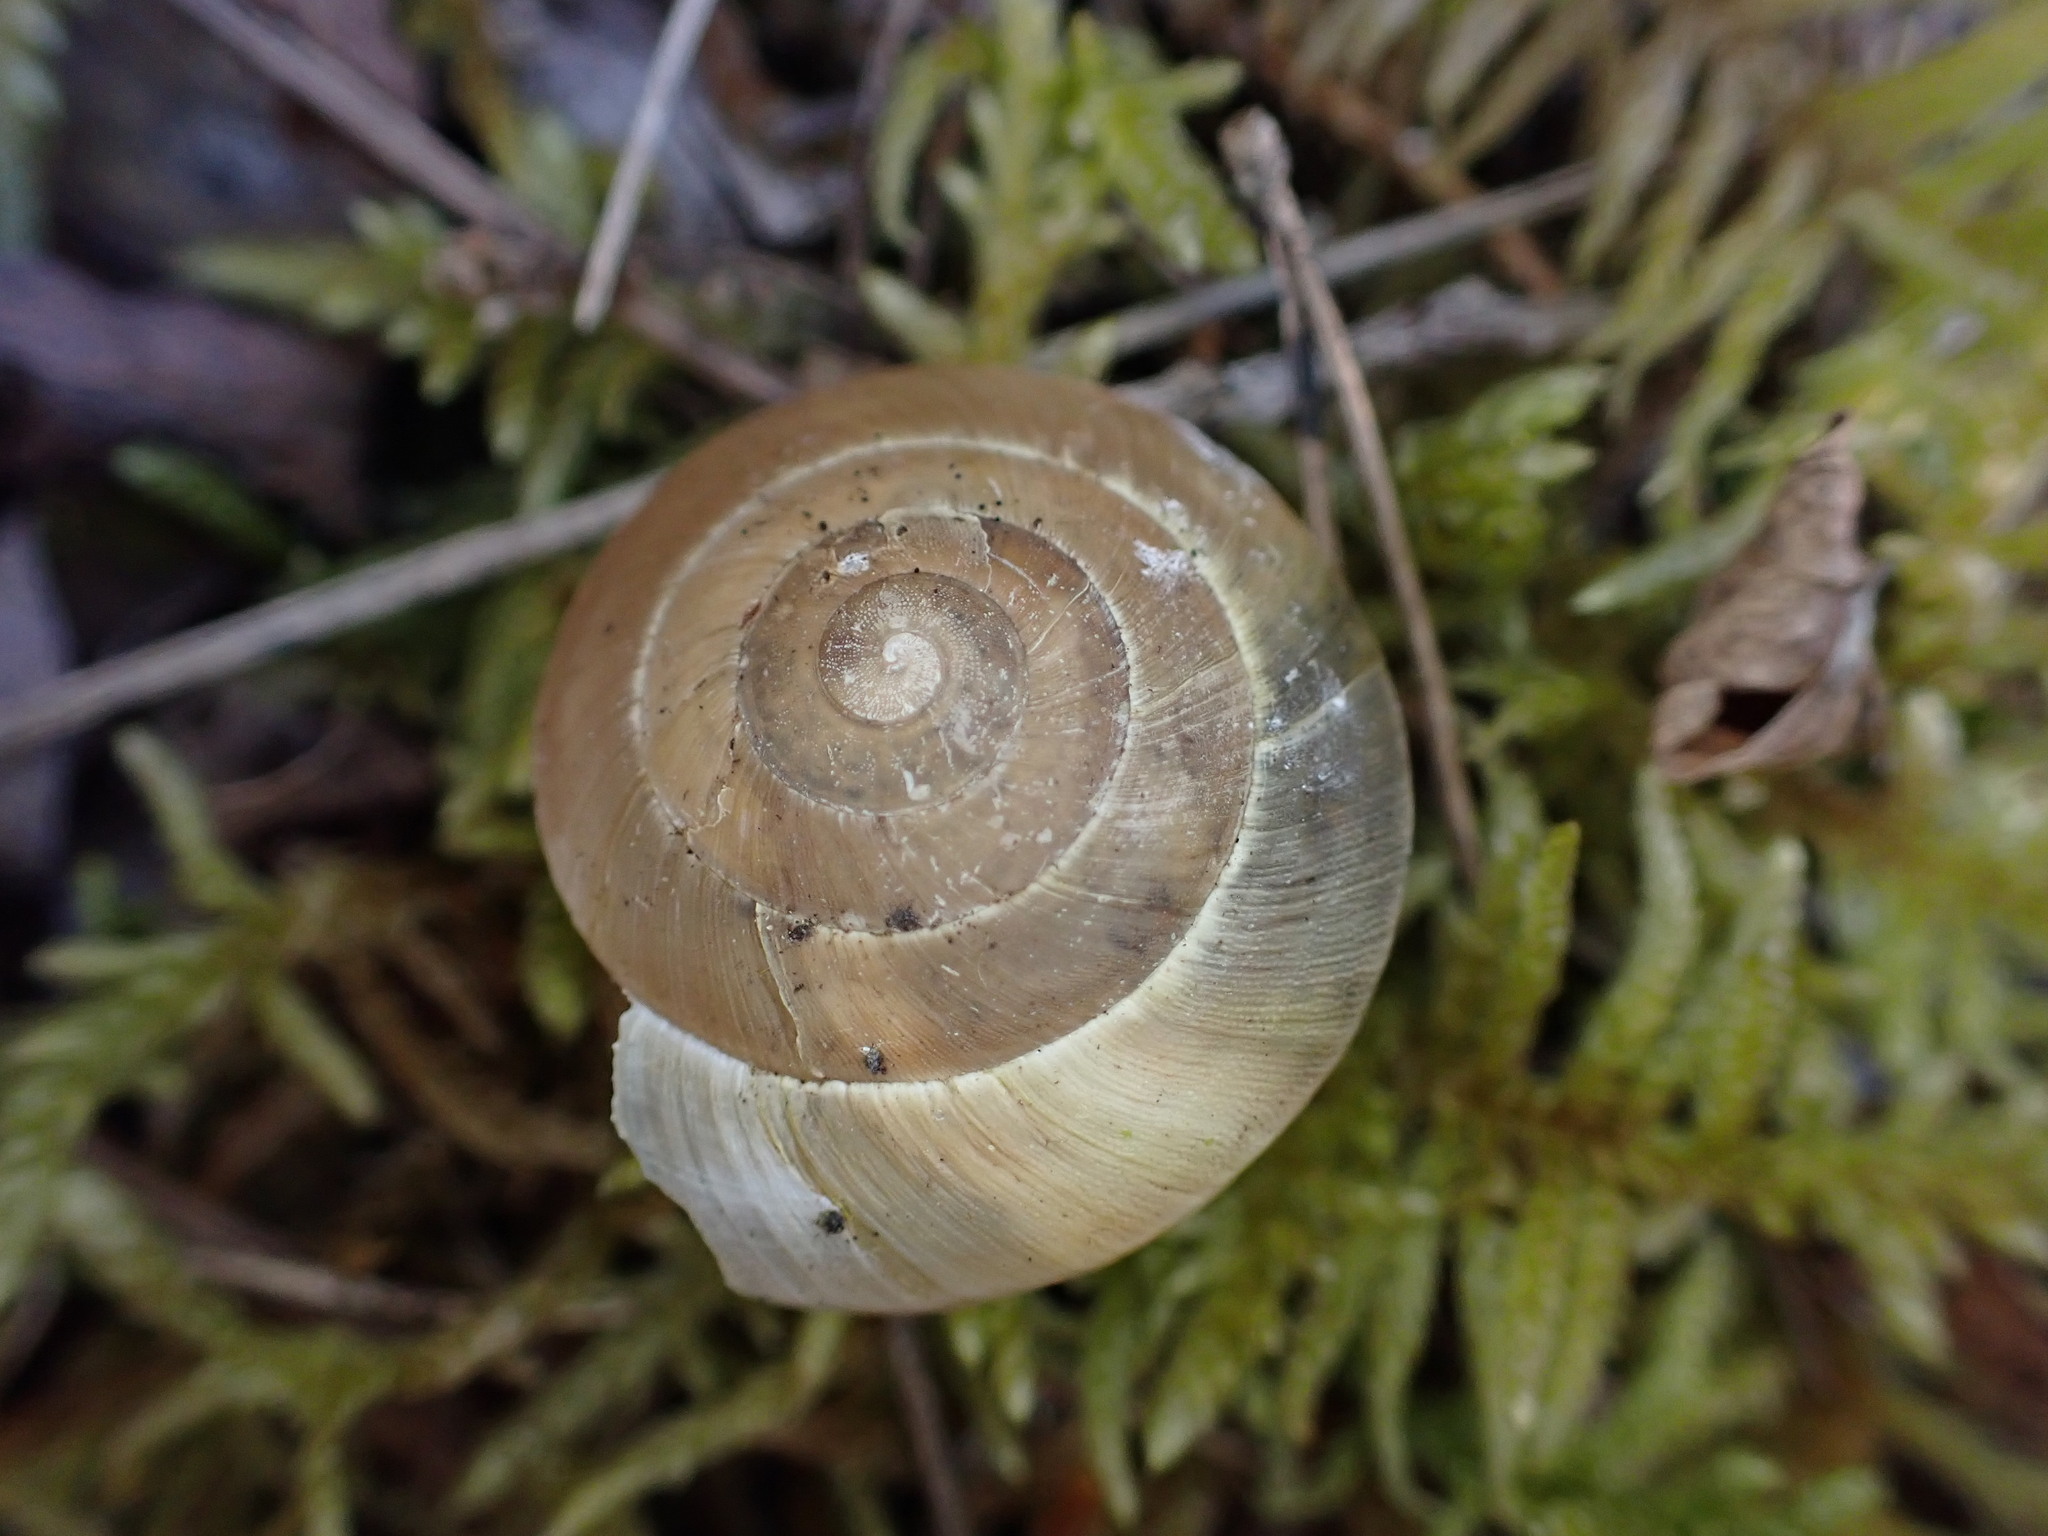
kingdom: Animalia
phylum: Mollusca
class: Gastropoda
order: Stylommatophora
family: Zonitidae
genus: Zonites
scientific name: Zonites algirus
